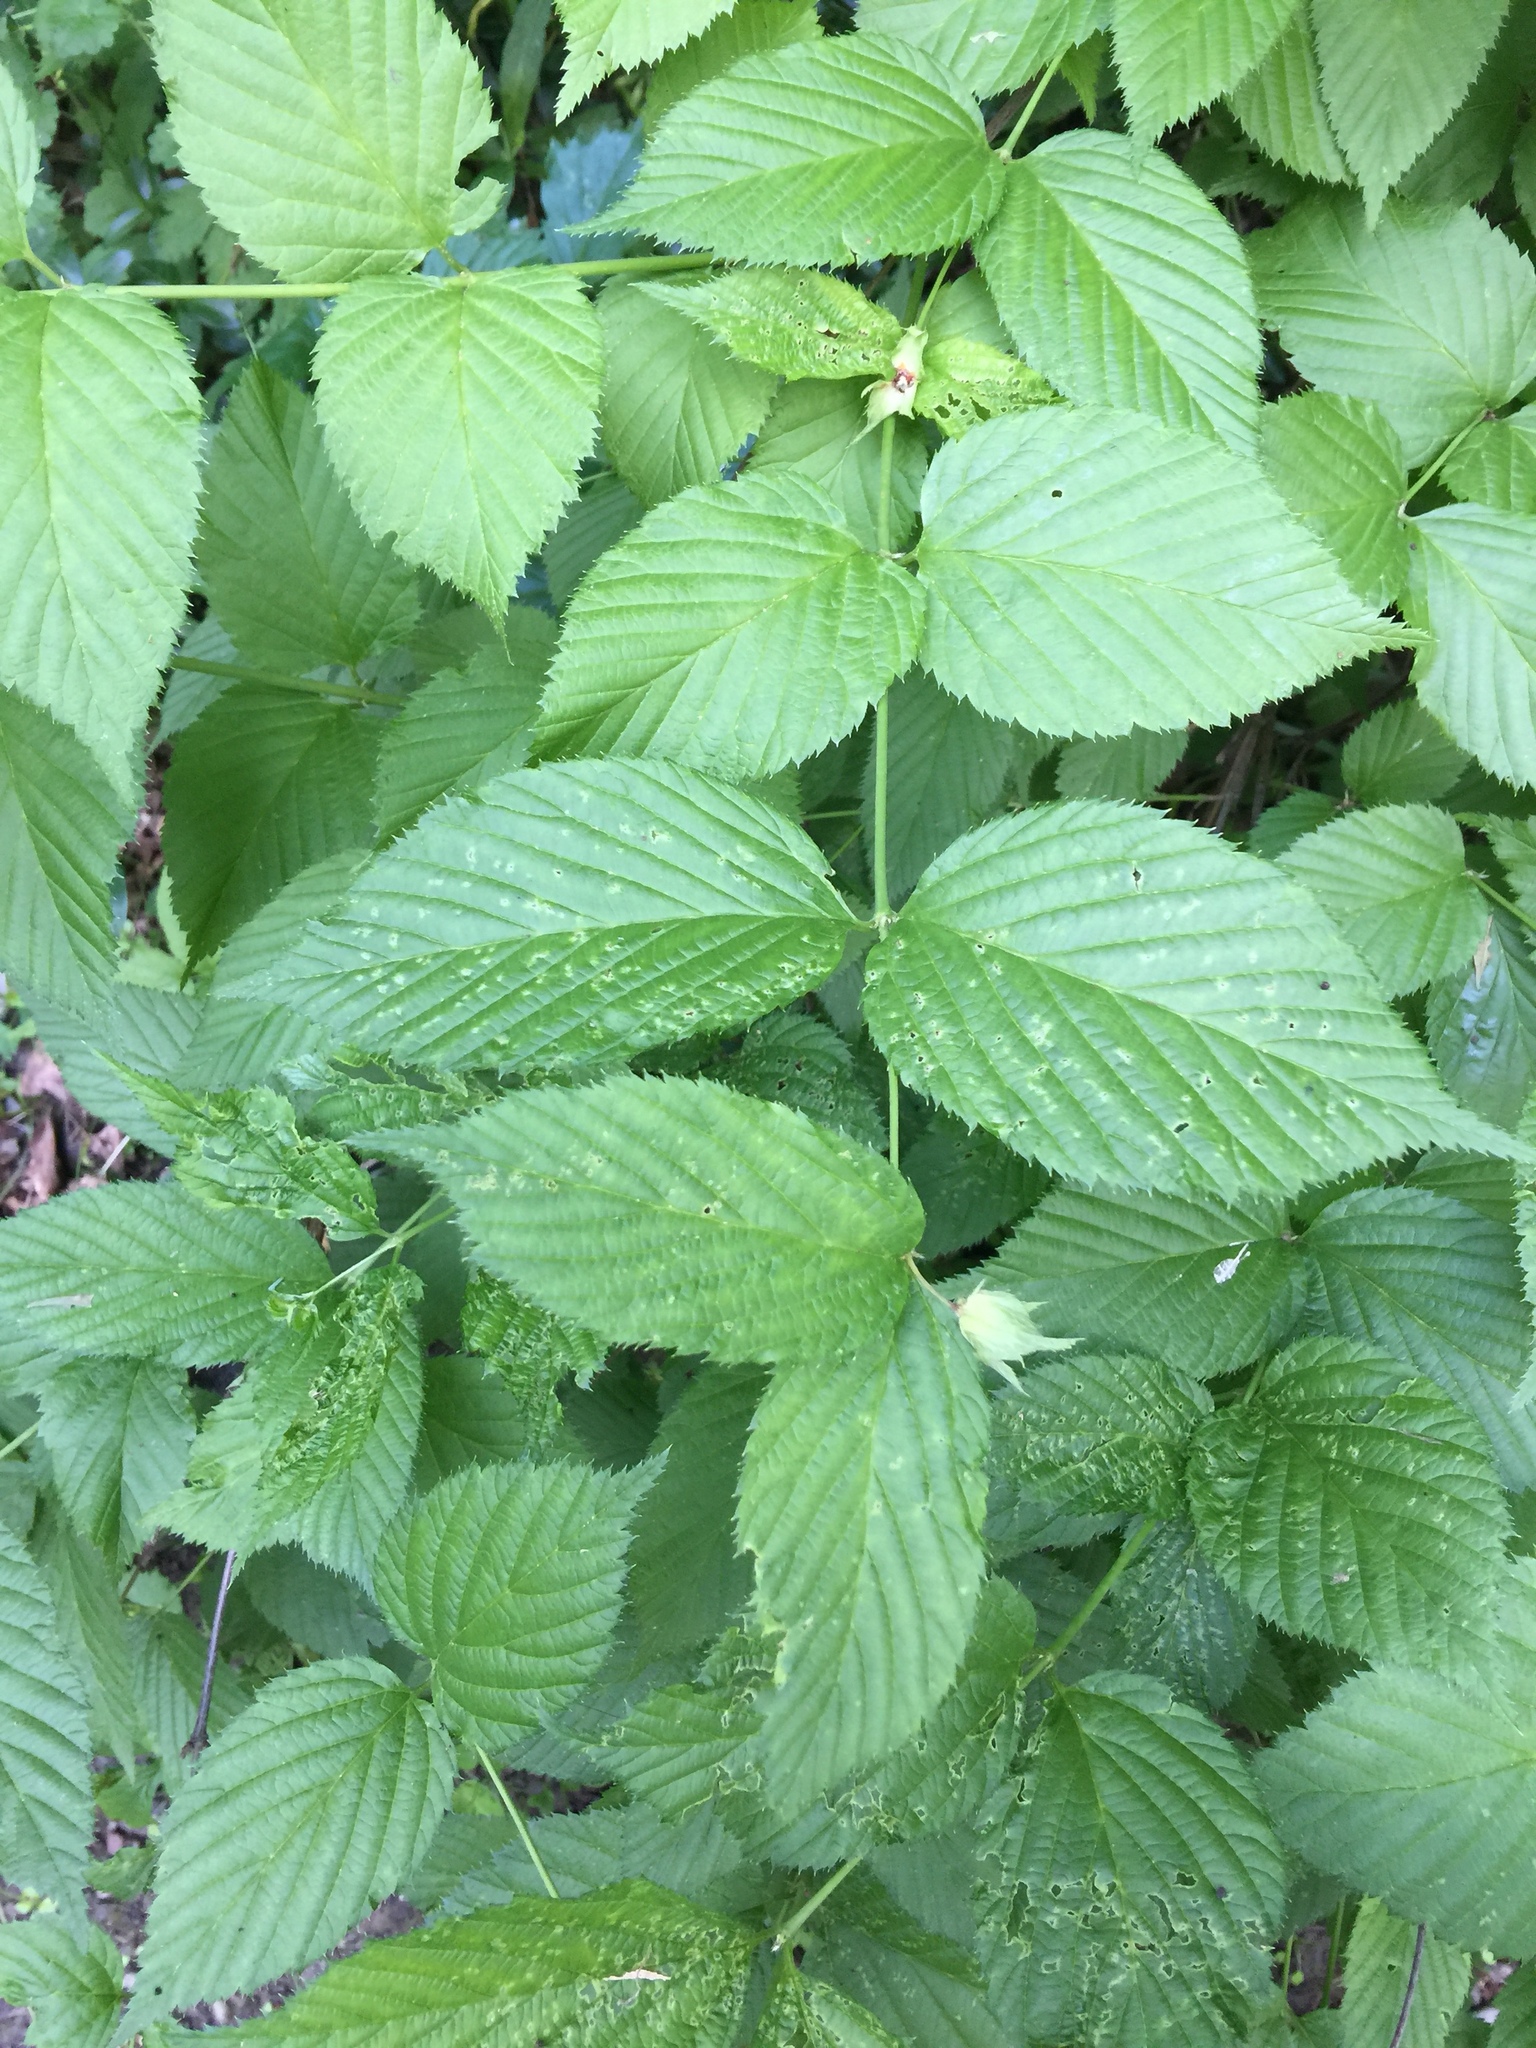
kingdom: Plantae
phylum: Tracheophyta
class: Magnoliopsida
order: Rosales
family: Rosaceae
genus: Rhodotypos
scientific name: Rhodotypos scandens
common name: Jetbead
